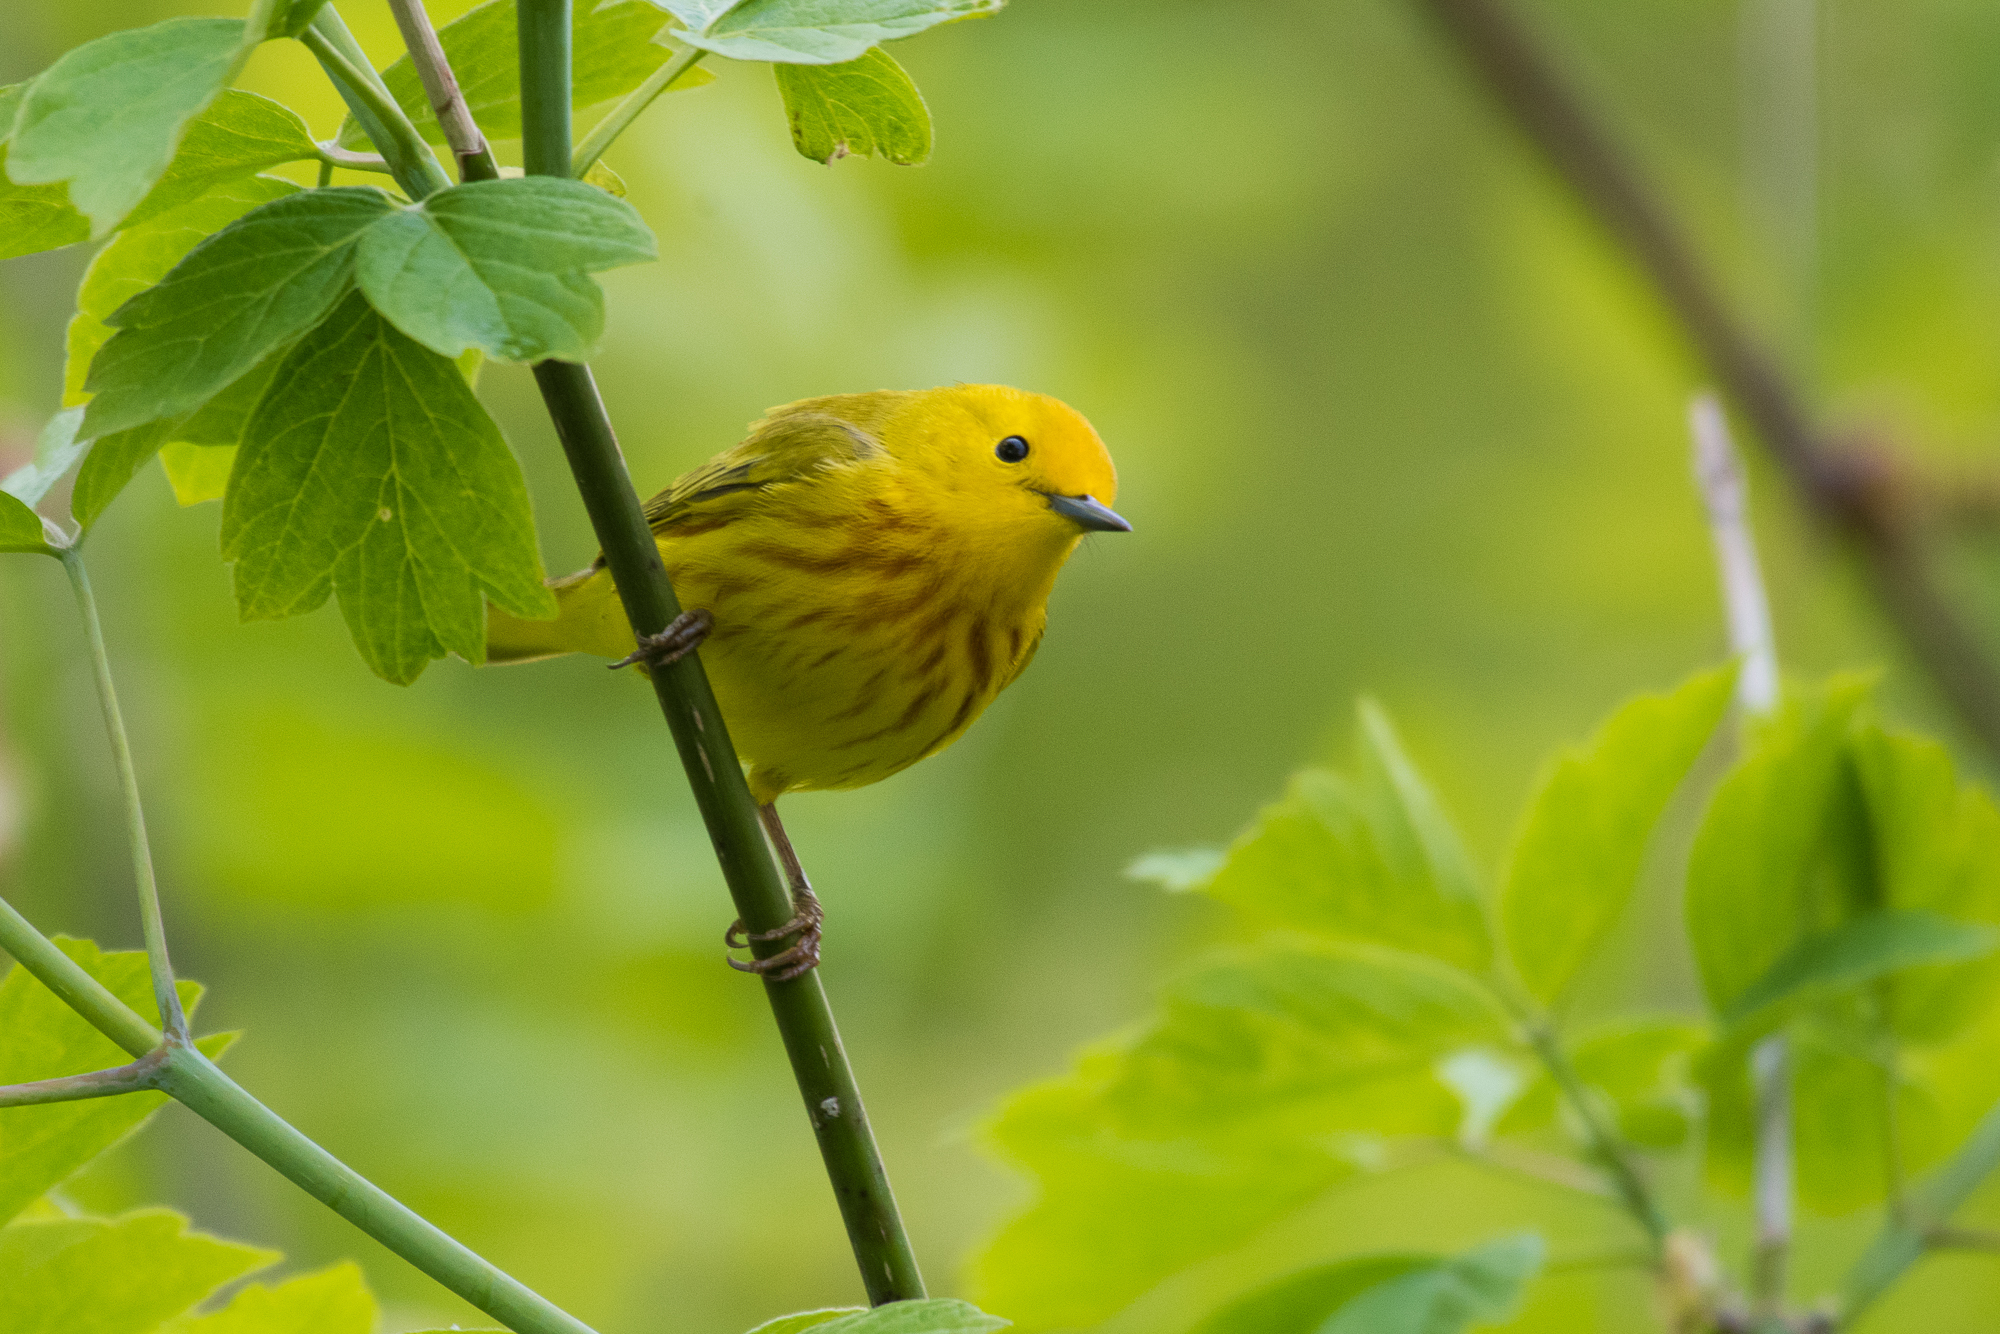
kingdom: Animalia
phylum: Chordata
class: Aves
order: Passeriformes
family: Parulidae
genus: Setophaga
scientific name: Setophaga petechia
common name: Yellow warbler
